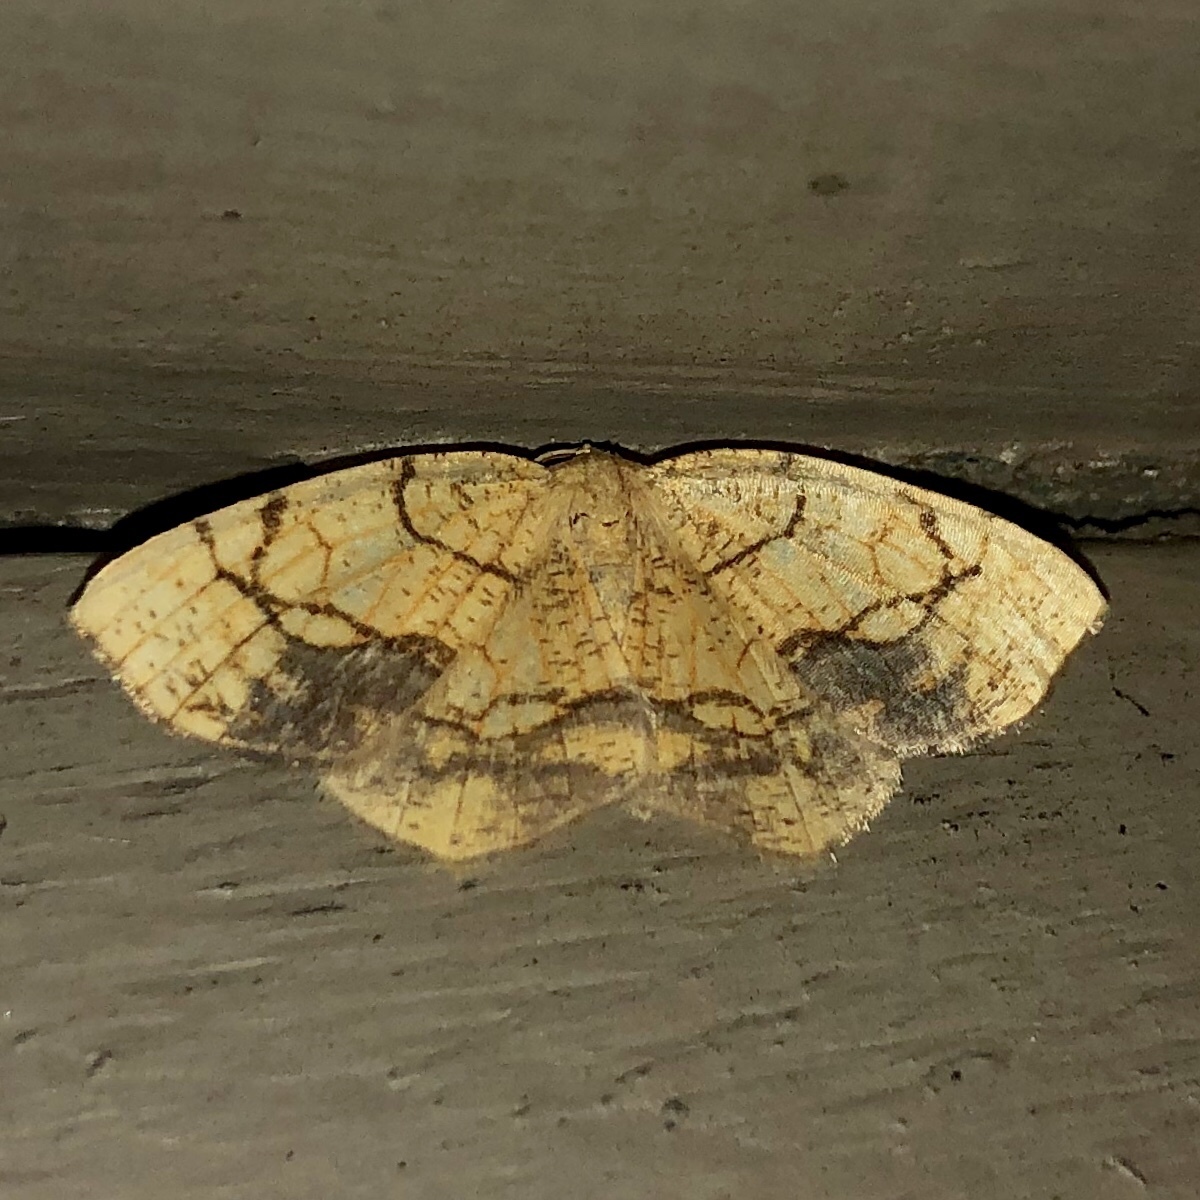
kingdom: Animalia
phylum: Arthropoda
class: Insecta
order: Lepidoptera
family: Geometridae
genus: Nematocampa
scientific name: Nematocampa resistaria
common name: Horned spanworm moth
